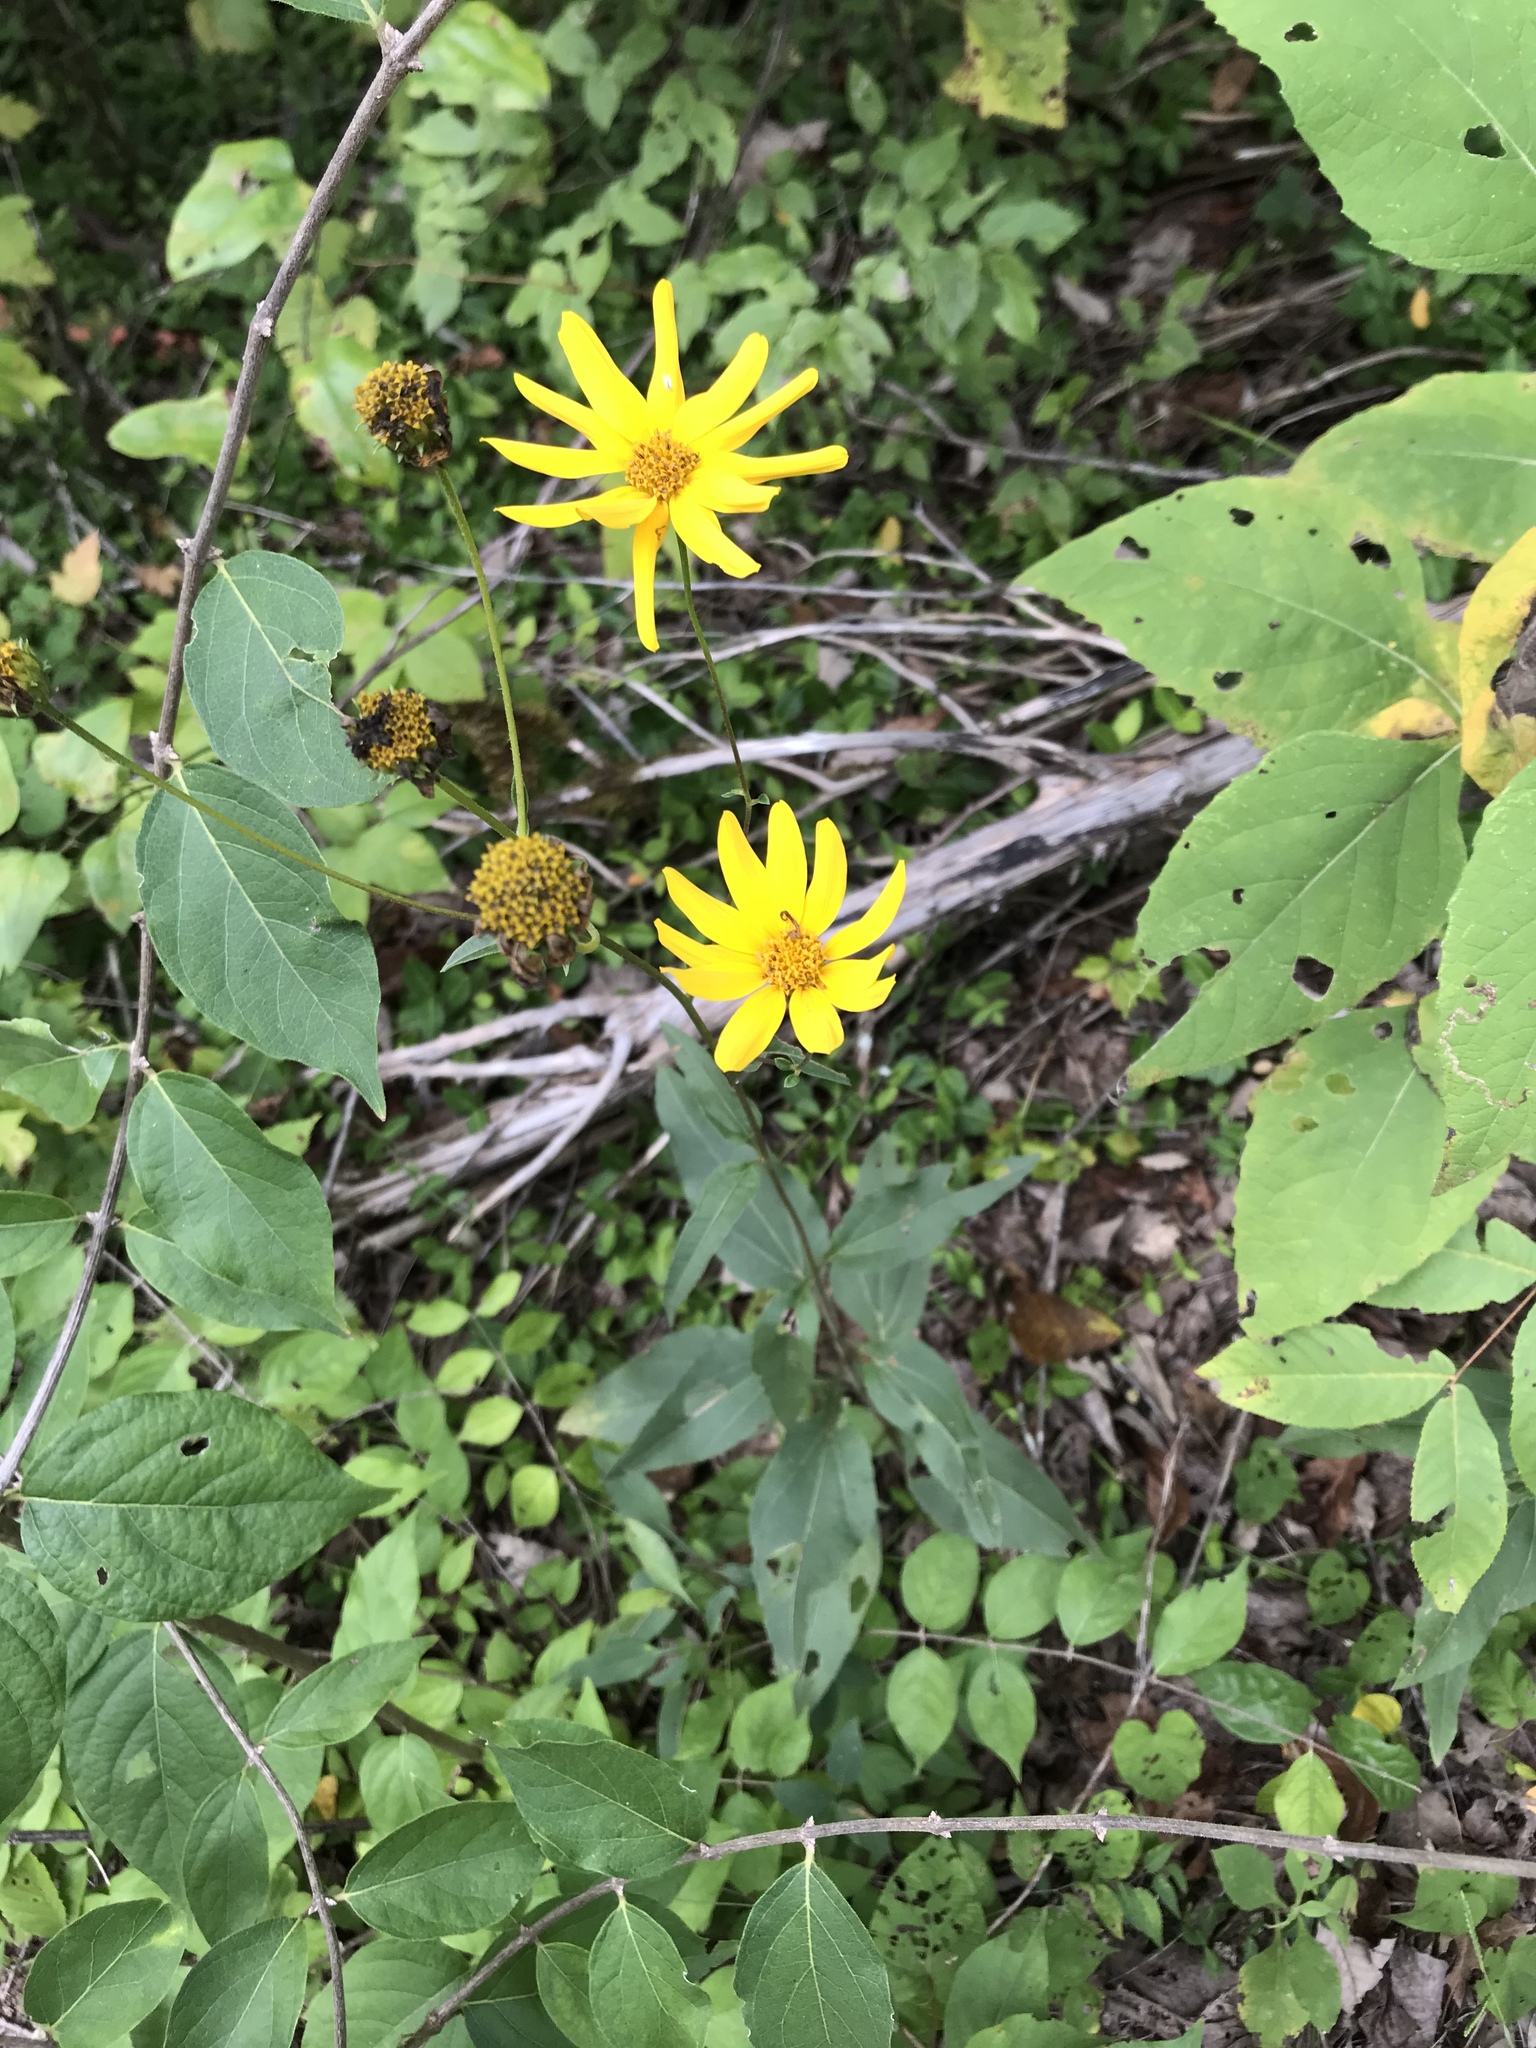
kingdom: Plantae
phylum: Tracheophyta
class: Magnoliopsida
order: Asterales
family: Asteraceae
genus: Helianthus
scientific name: Helianthus occidentalis
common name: Western sunflower
